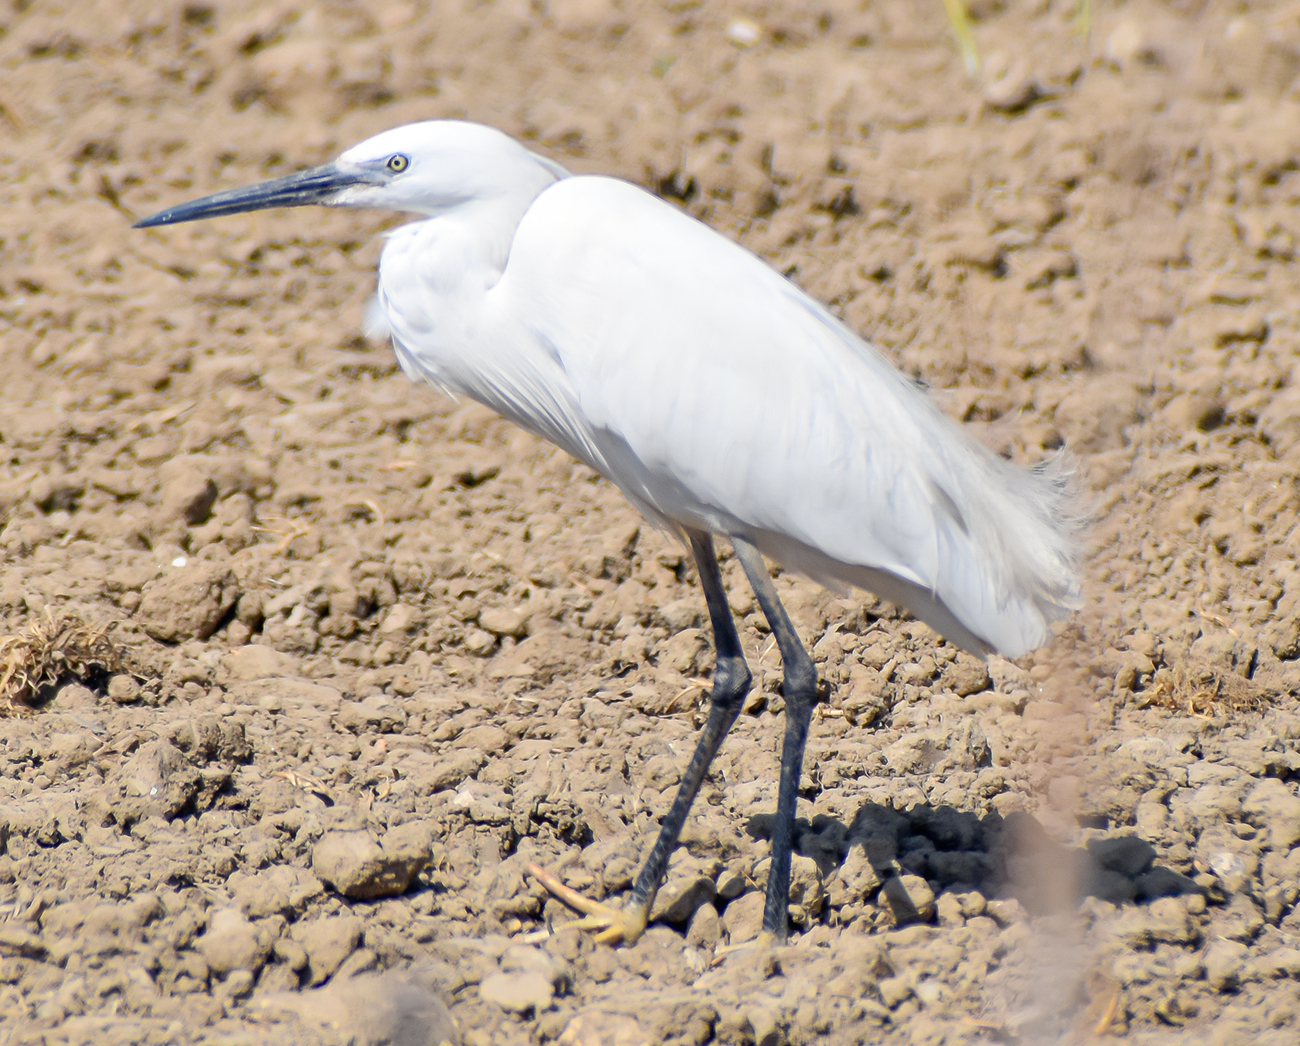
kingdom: Animalia
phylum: Chordata
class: Aves
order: Pelecaniformes
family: Ardeidae
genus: Egretta
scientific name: Egretta garzetta
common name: Little egret
